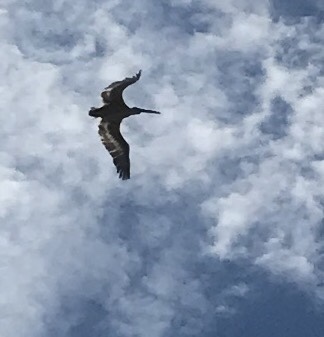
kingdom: Animalia
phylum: Chordata
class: Aves
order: Pelecaniformes
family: Pelecanidae
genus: Pelecanus
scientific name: Pelecanus crispus
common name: Dalmatian pelican
